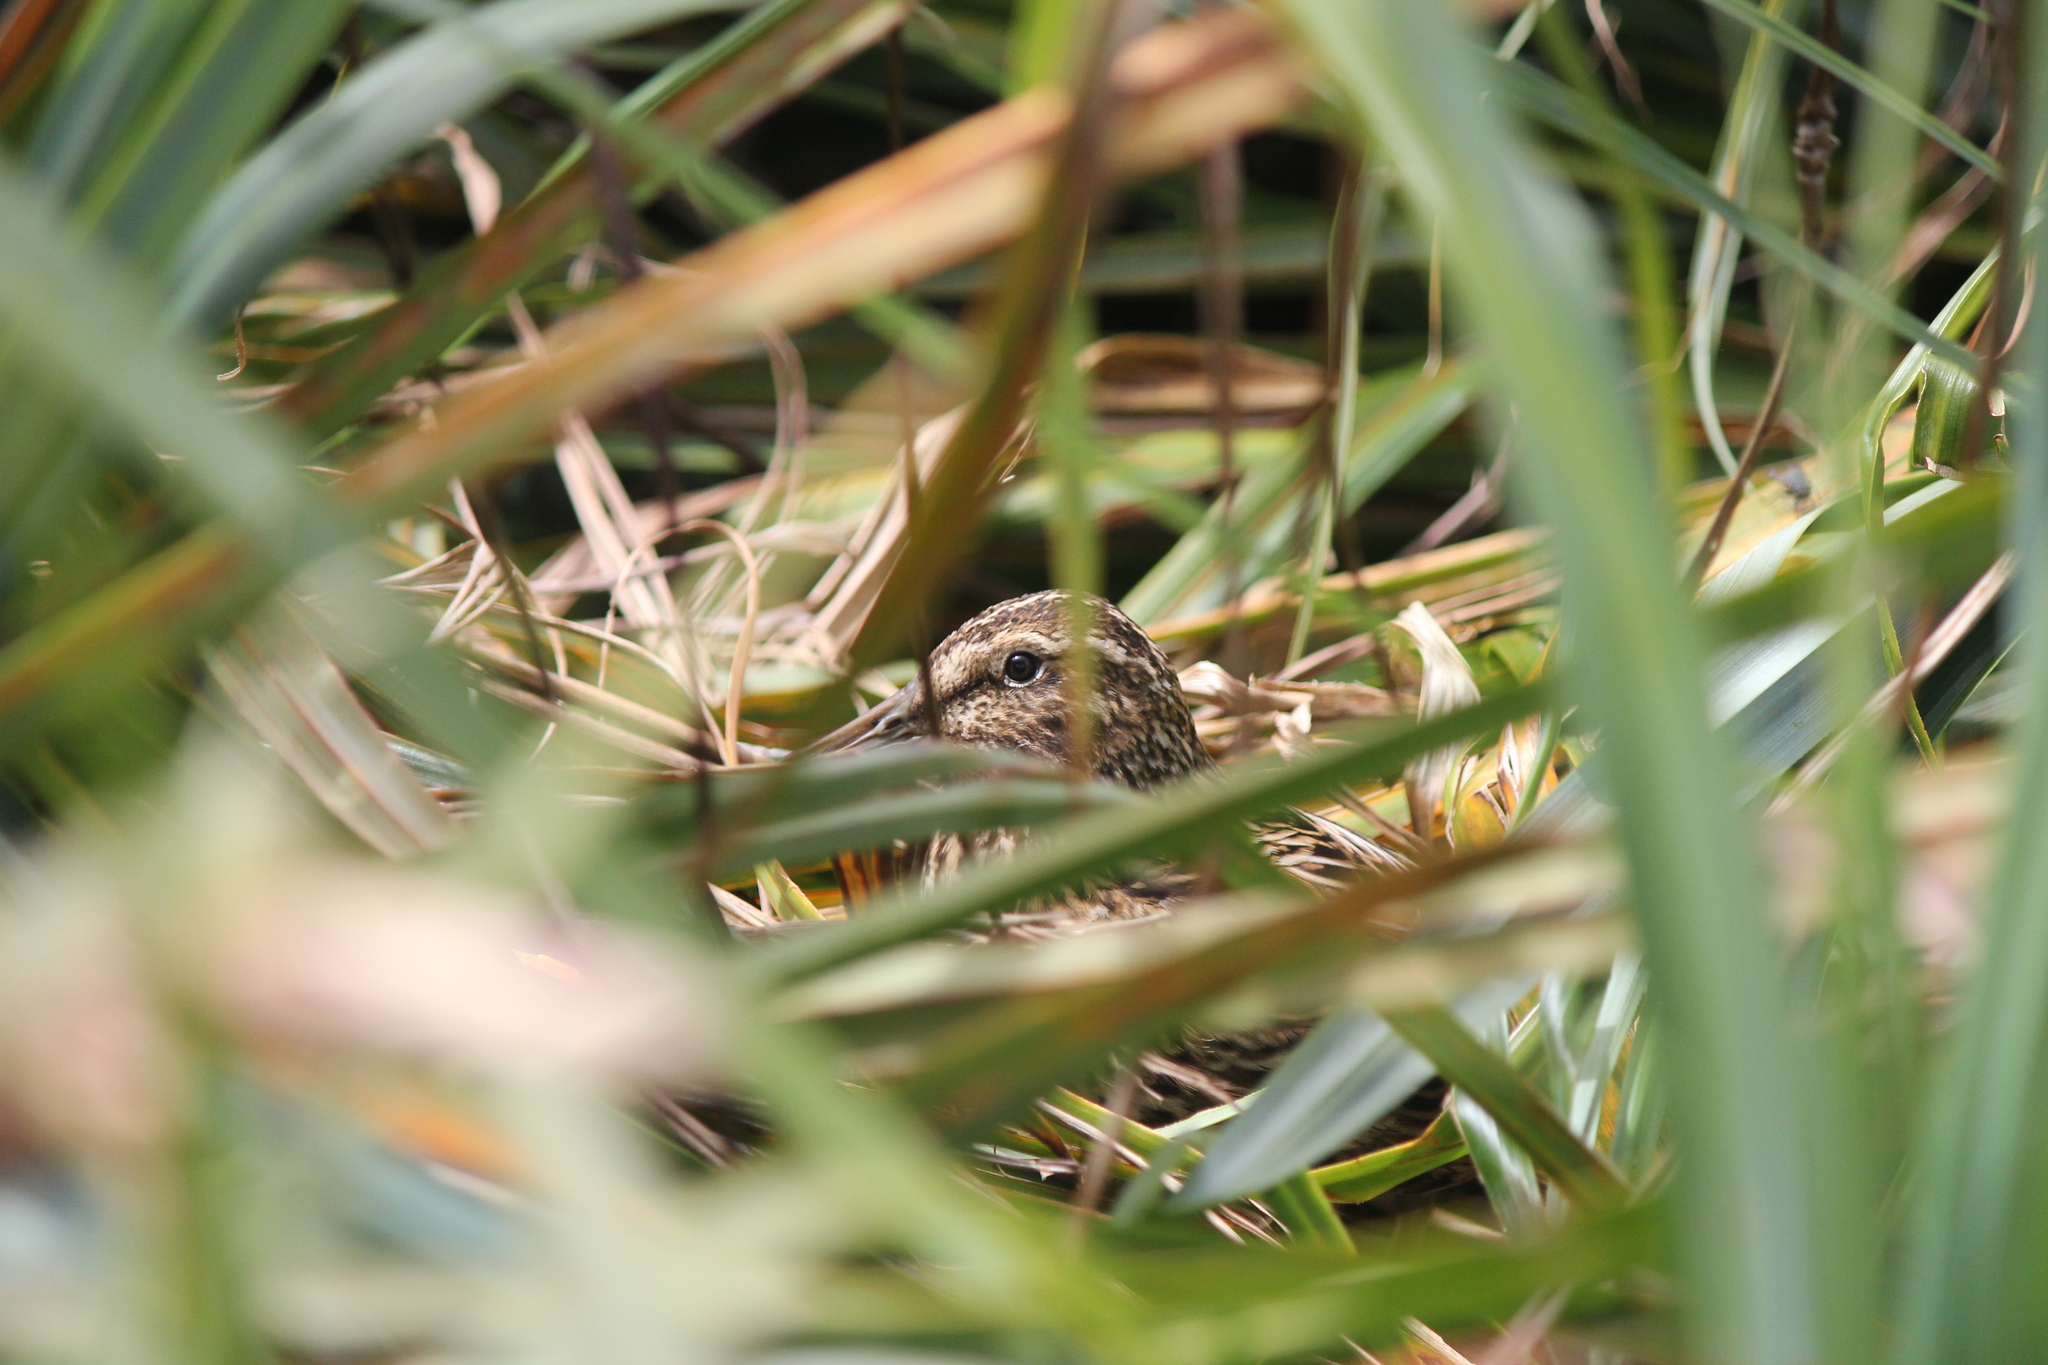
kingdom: Animalia
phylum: Chordata
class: Aves
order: Charadriiformes
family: Scolopacidae
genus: Coenocorypha
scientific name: Coenocorypha aucklandica
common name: Subantarctic snipe
